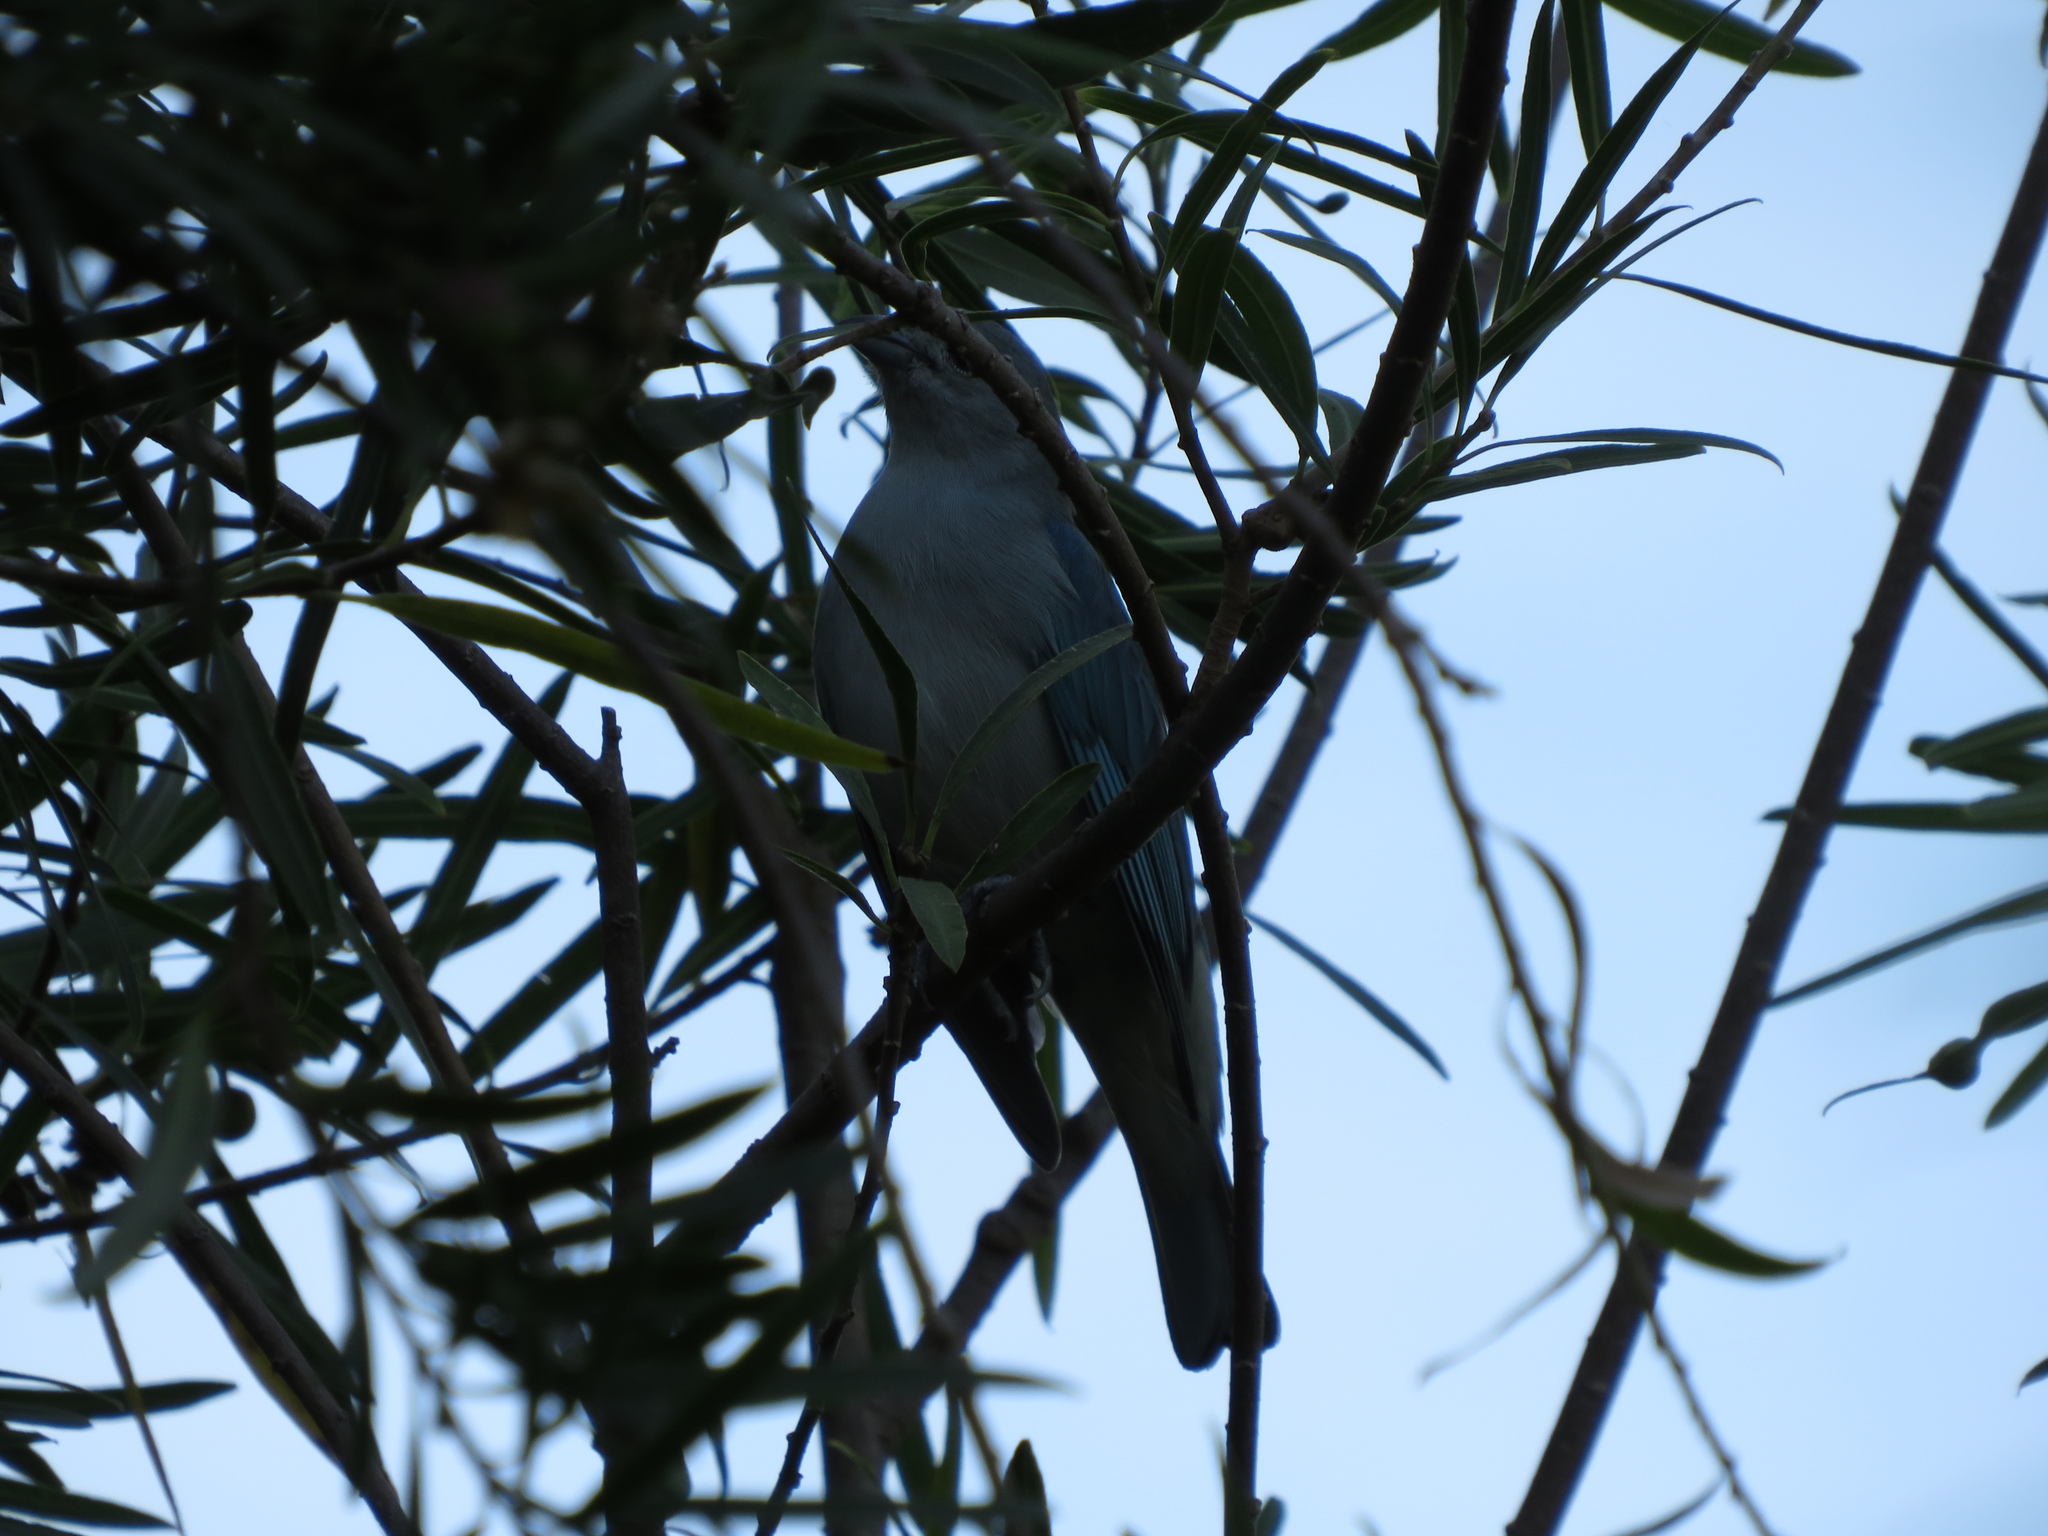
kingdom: Animalia
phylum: Chordata
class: Aves
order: Passeriformes
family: Thraupidae
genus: Thraupis
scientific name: Thraupis sayaca
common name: Sayaca tanager
